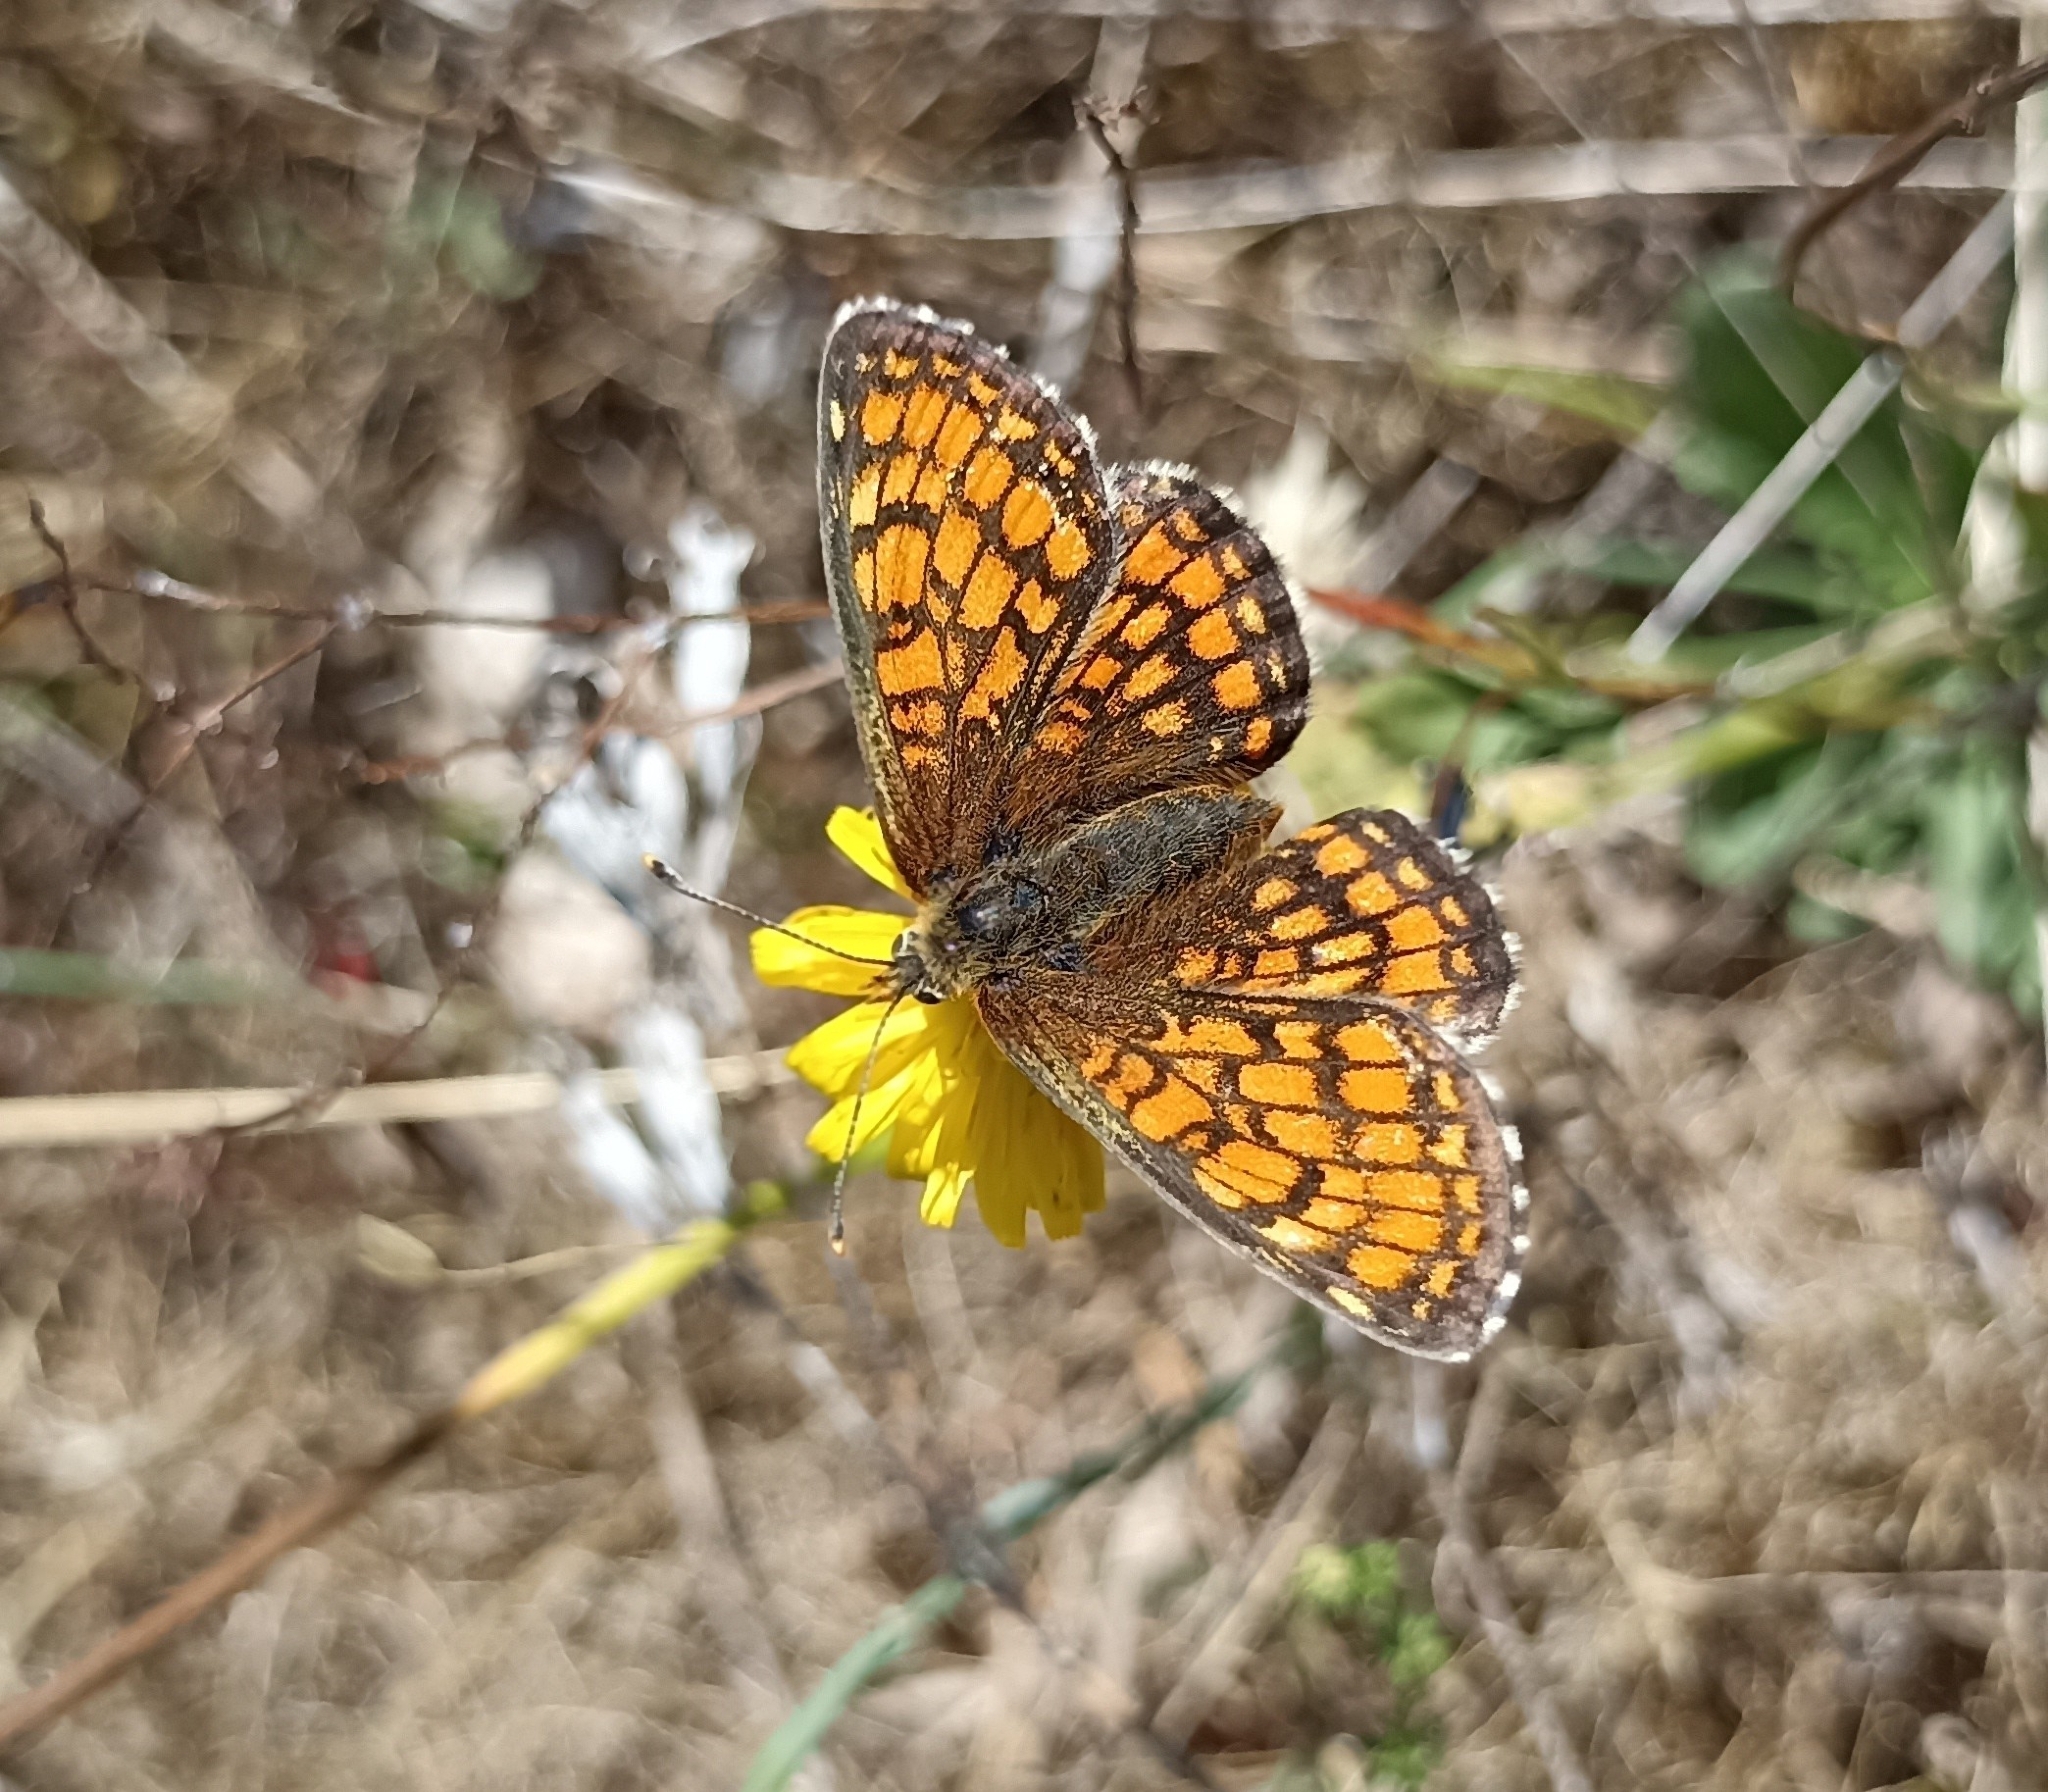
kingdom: Animalia
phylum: Arthropoda
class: Insecta
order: Lepidoptera
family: Nymphalidae
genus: Mellicta
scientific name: Mellicta parthenoides
